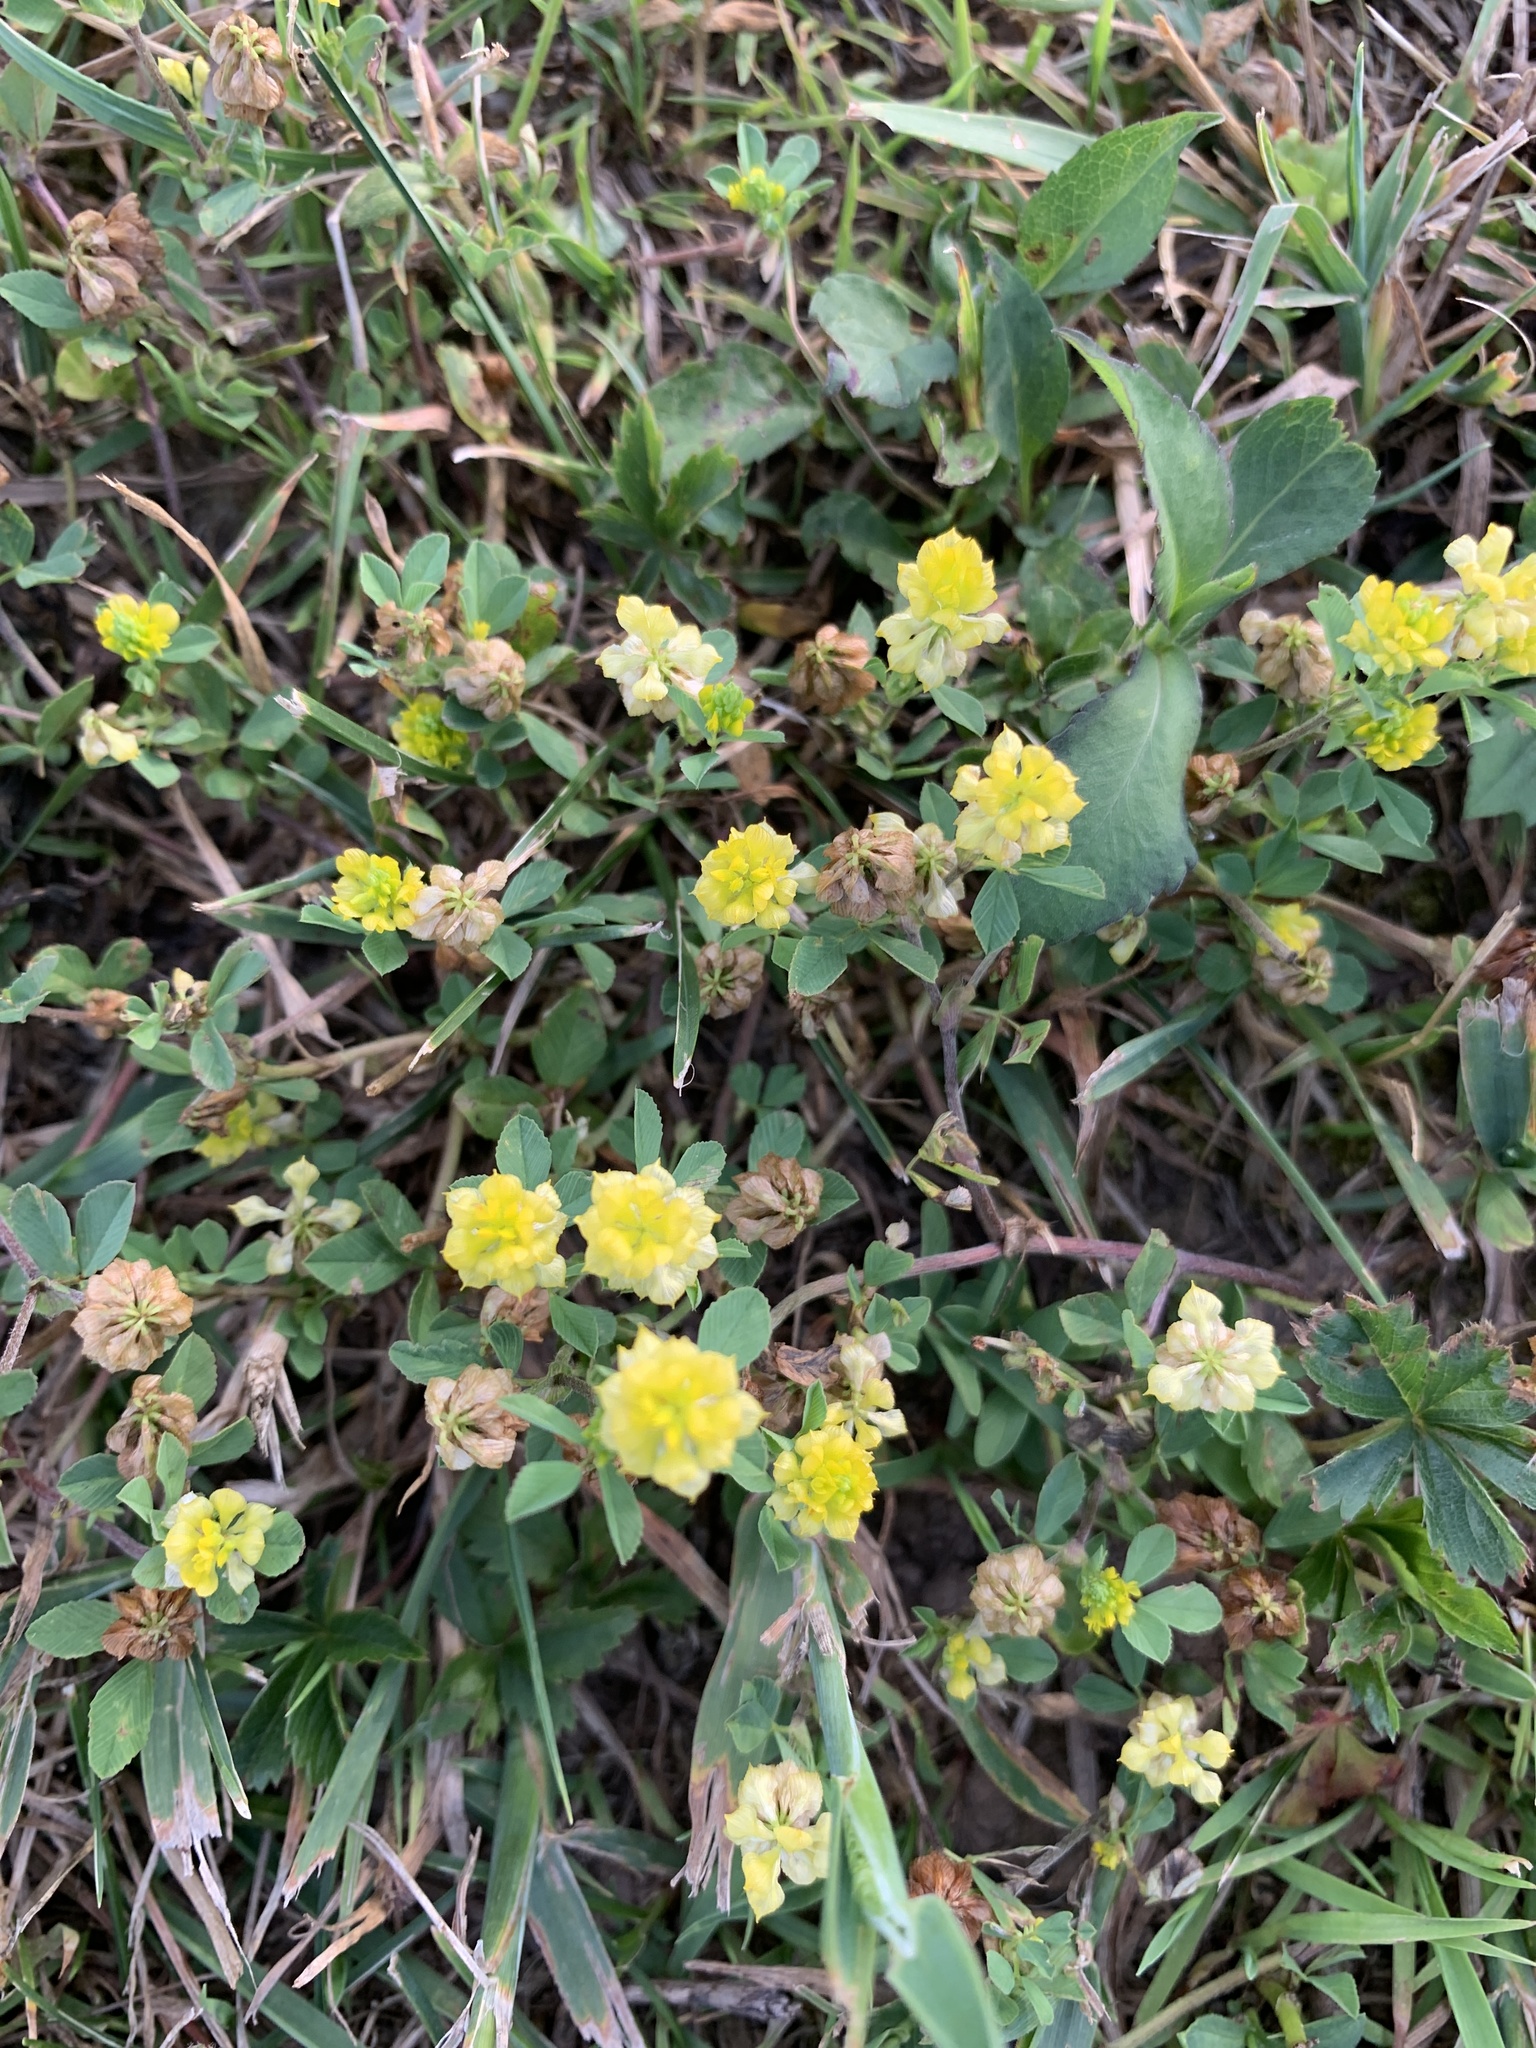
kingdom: Plantae
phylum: Tracheophyta
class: Magnoliopsida
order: Fabales
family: Fabaceae
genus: Trifolium
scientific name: Trifolium campestre
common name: Field clover
